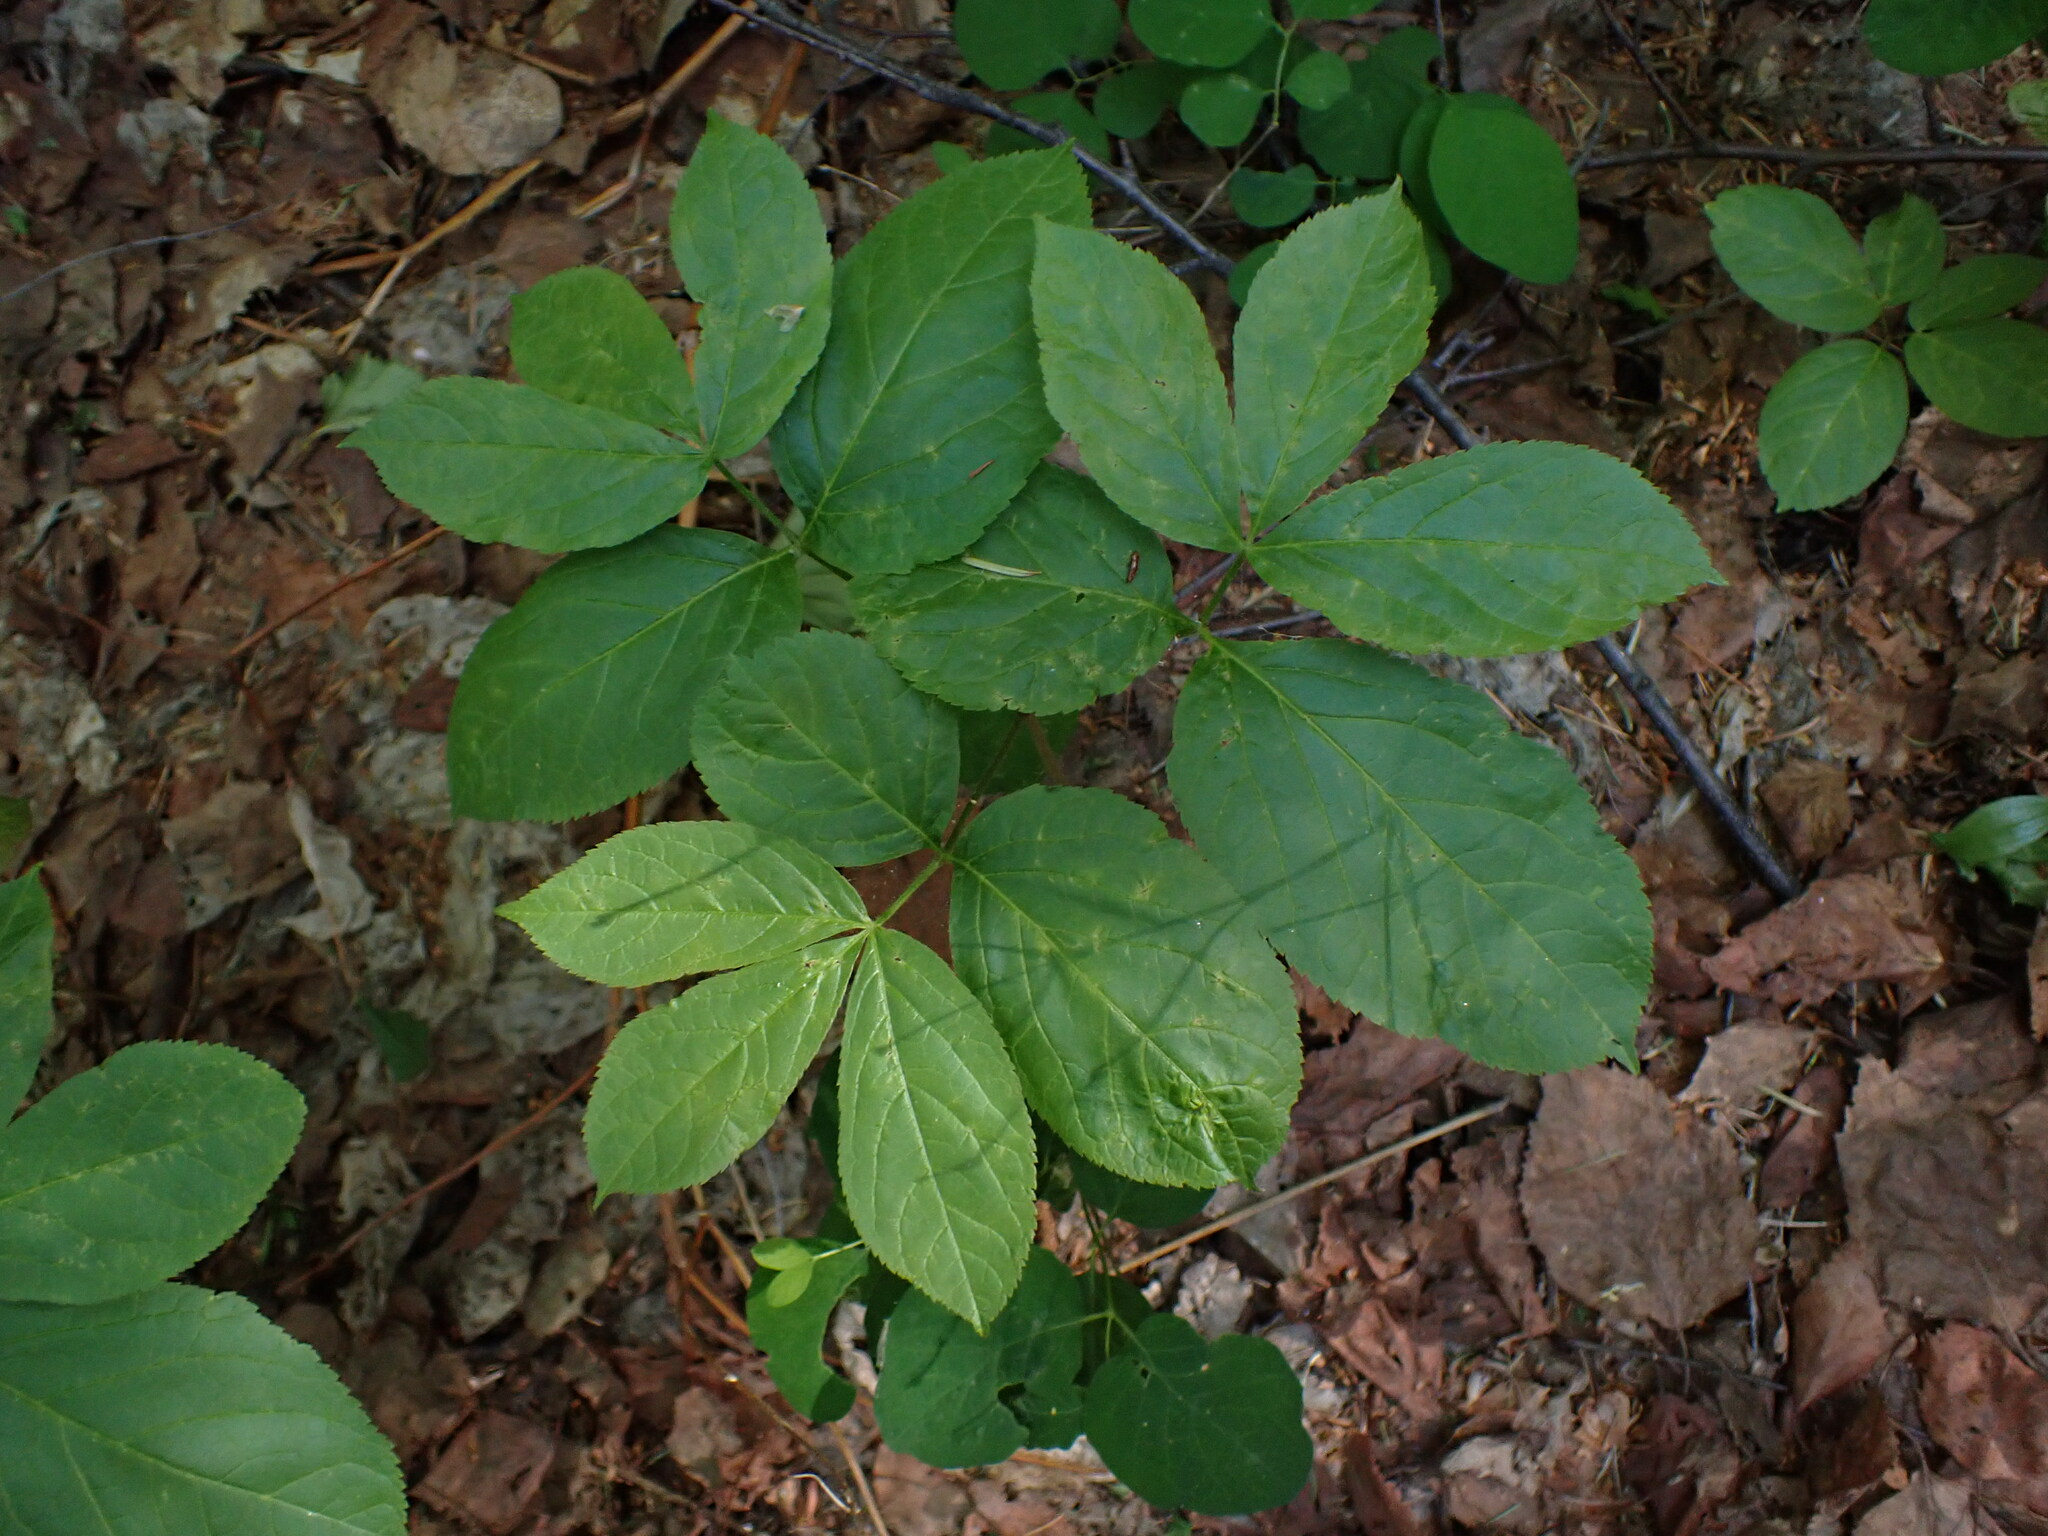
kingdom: Plantae
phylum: Tracheophyta
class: Magnoliopsida
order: Apiales
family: Araliaceae
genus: Aralia
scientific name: Aralia nudicaulis
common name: Wild sarsaparilla
